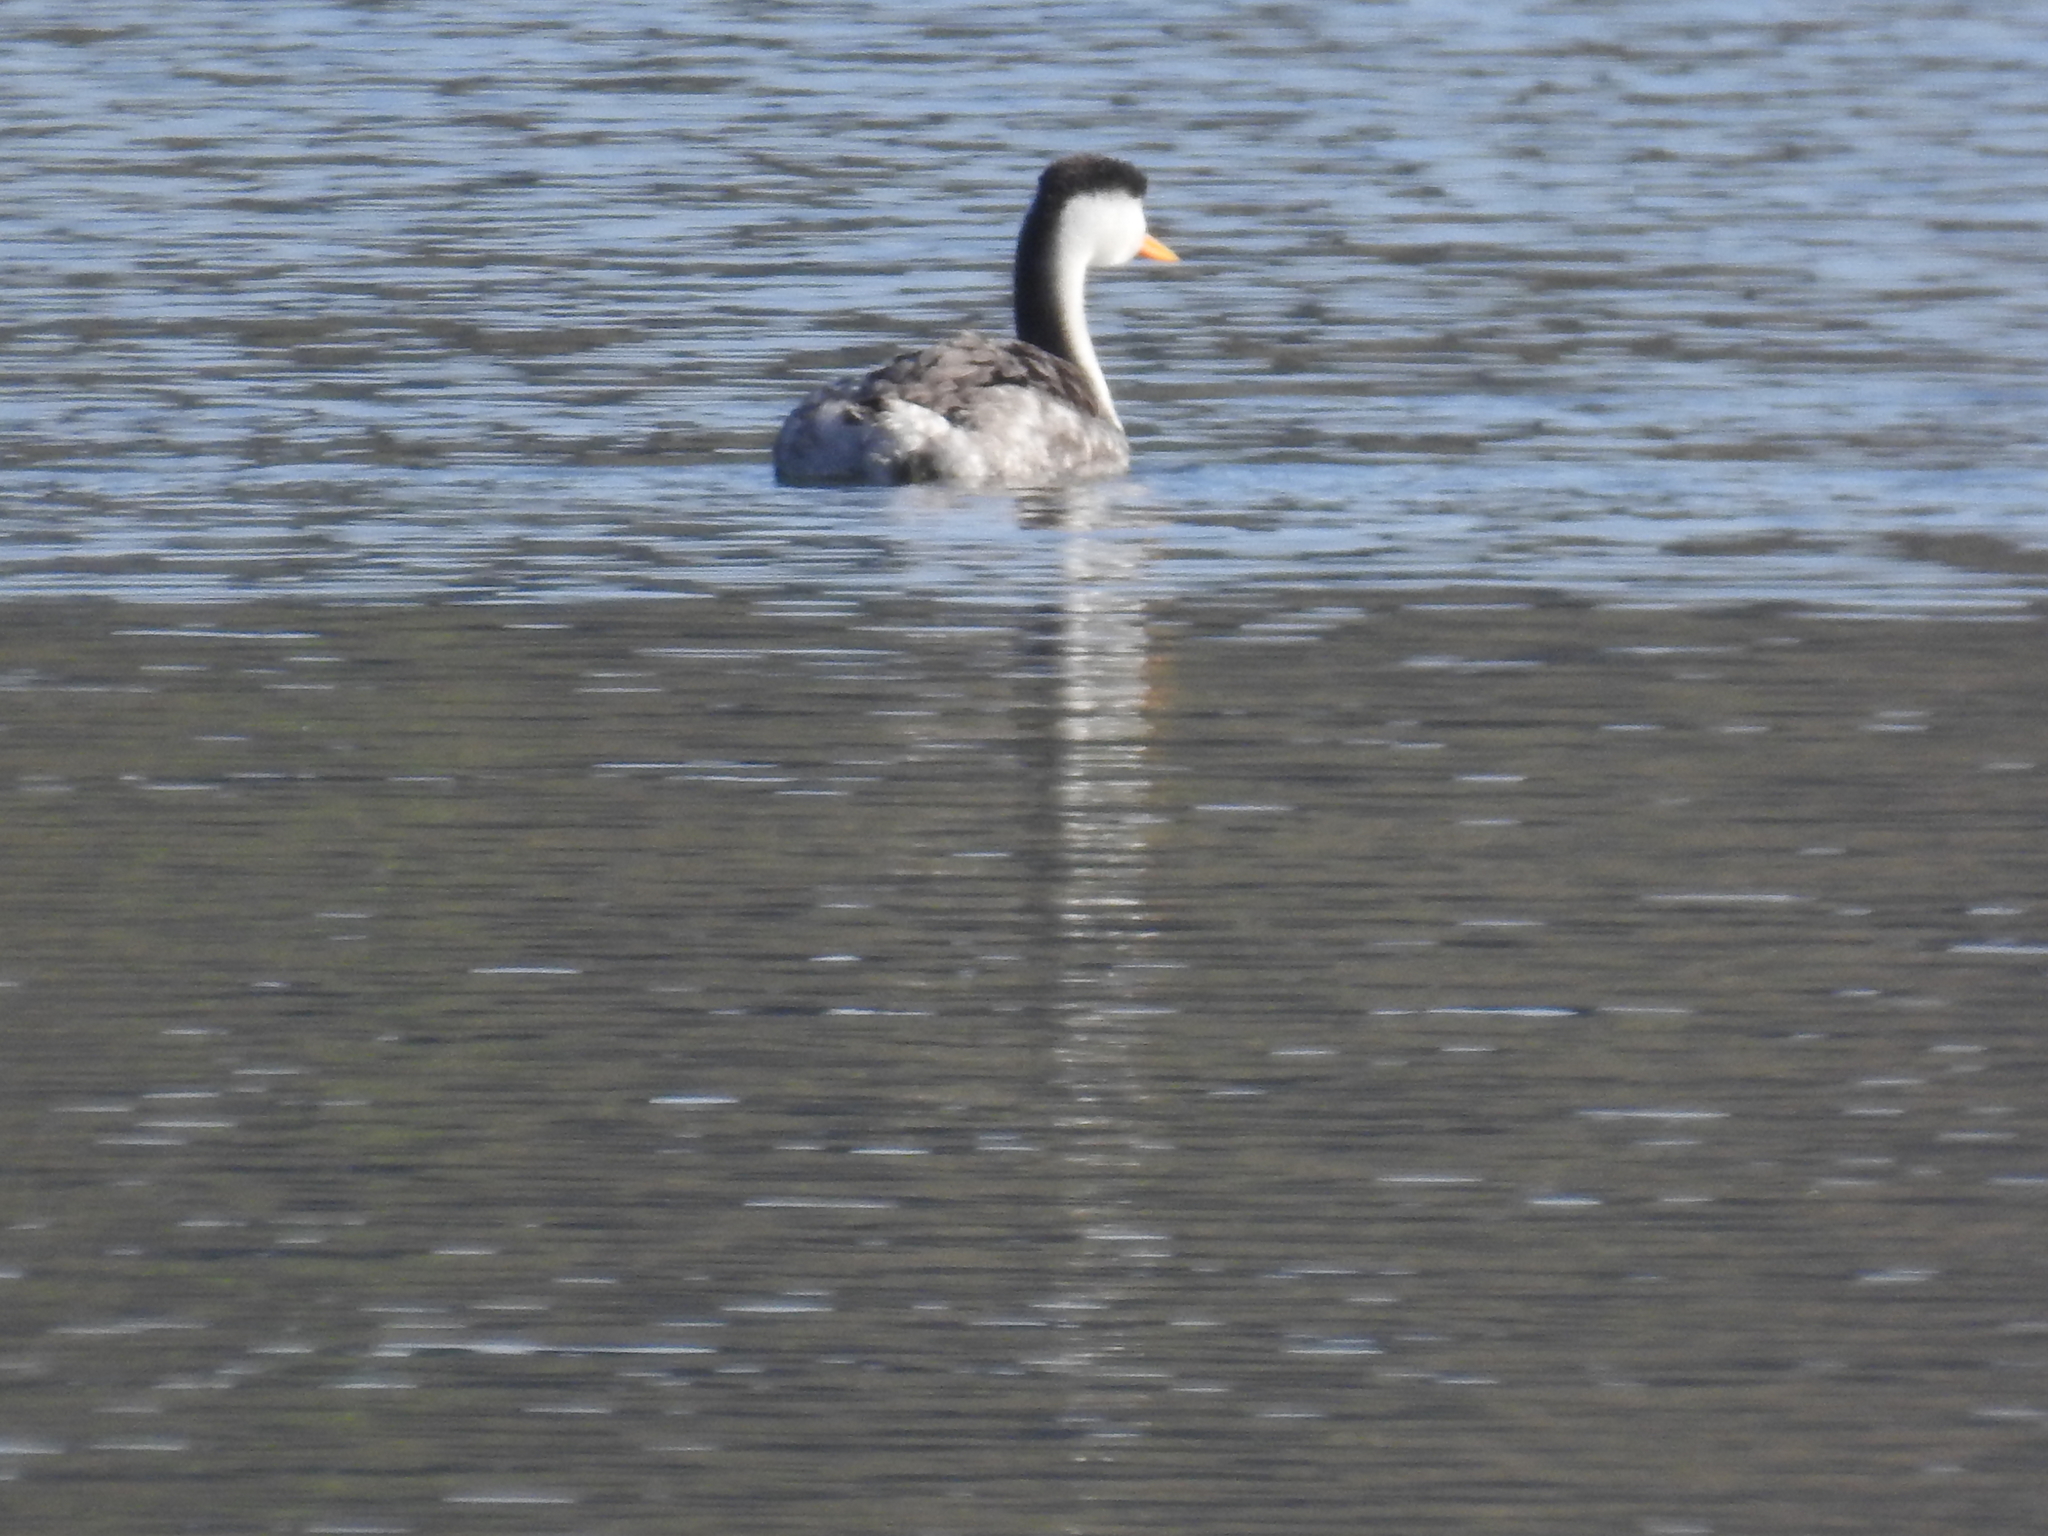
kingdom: Animalia
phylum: Chordata
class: Aves
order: Podicipediformes
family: Podicipedidae
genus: Aechmophorus
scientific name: Aechmophorus clarkii
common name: Clark's grebe
